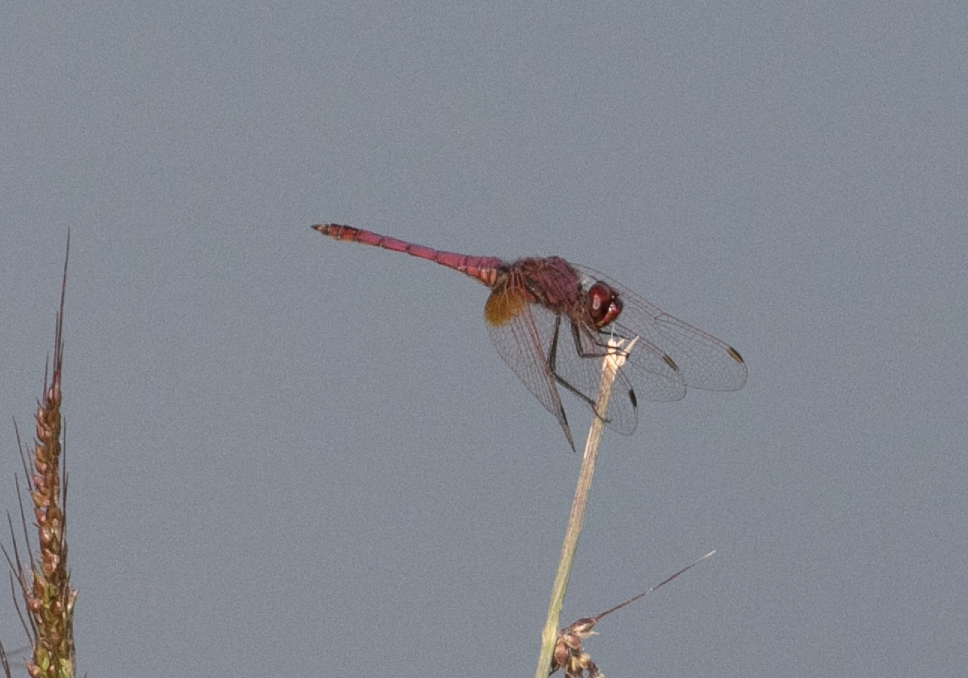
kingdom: Animalia
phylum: Arthropoda
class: Insecta
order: Odonata
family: Libellulidae
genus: Trithemis
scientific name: Trithemis annulata
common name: Violet dropwing
